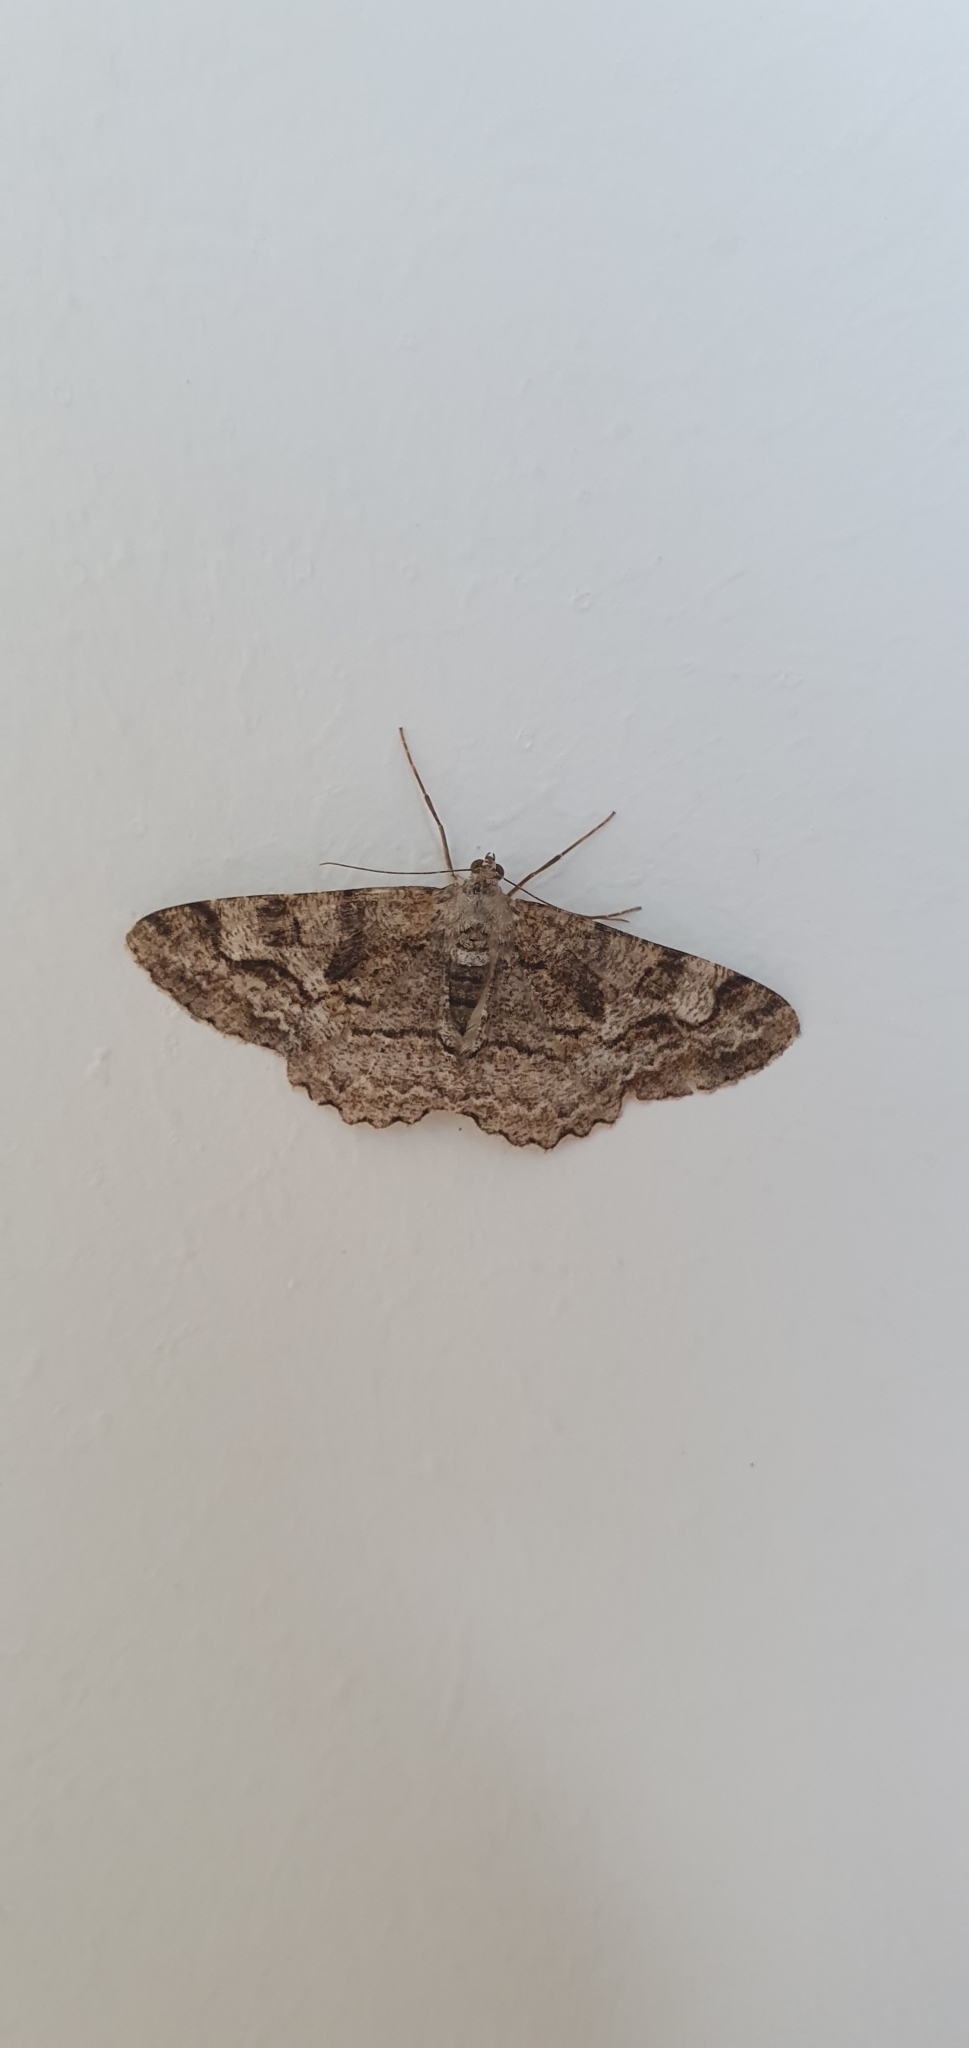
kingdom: Animalia
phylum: Arthropoda
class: Insecta
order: Lepidoptera
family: Geometridae
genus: Alcis
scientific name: Alcis repandata
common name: Mottled beauty
